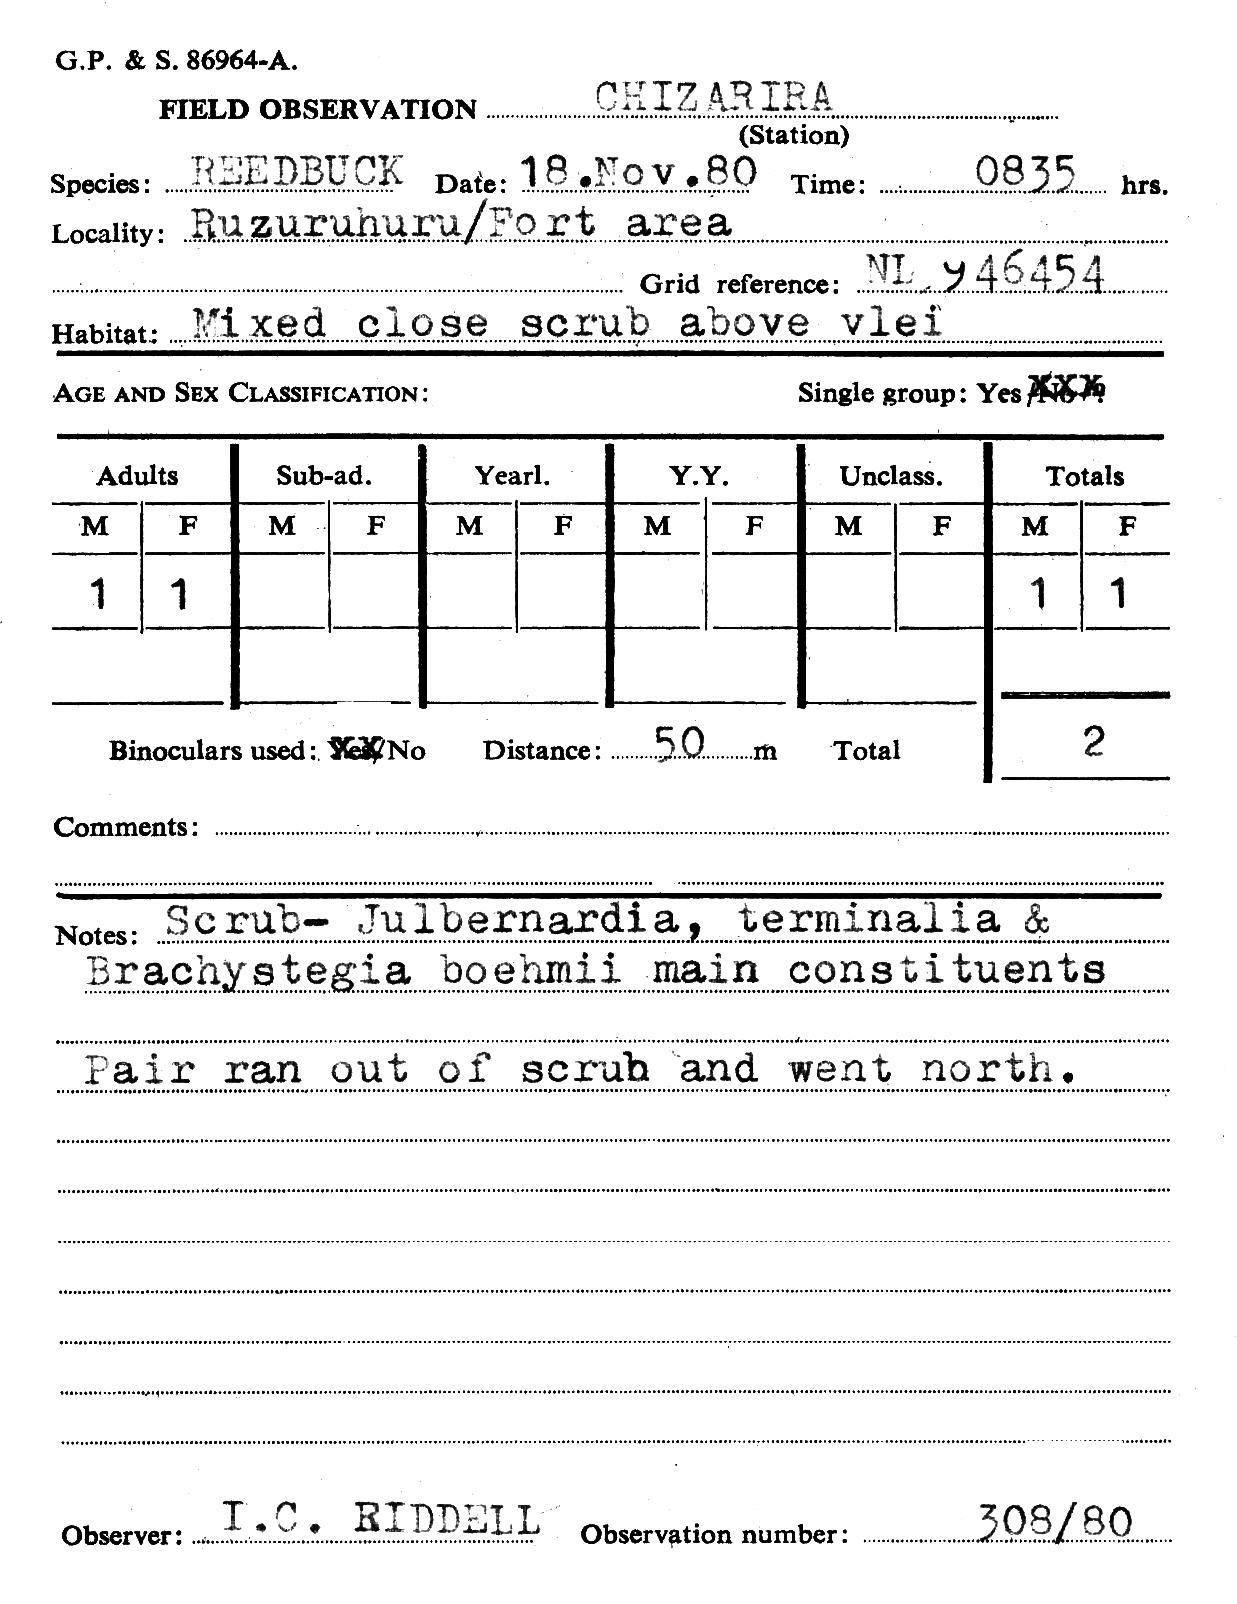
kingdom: Animalia
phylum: Chordata
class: Mammalia
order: Artiodactyla
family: Bovidae
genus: Redunca
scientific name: Redunca arundinum
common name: Southern reedbuck
